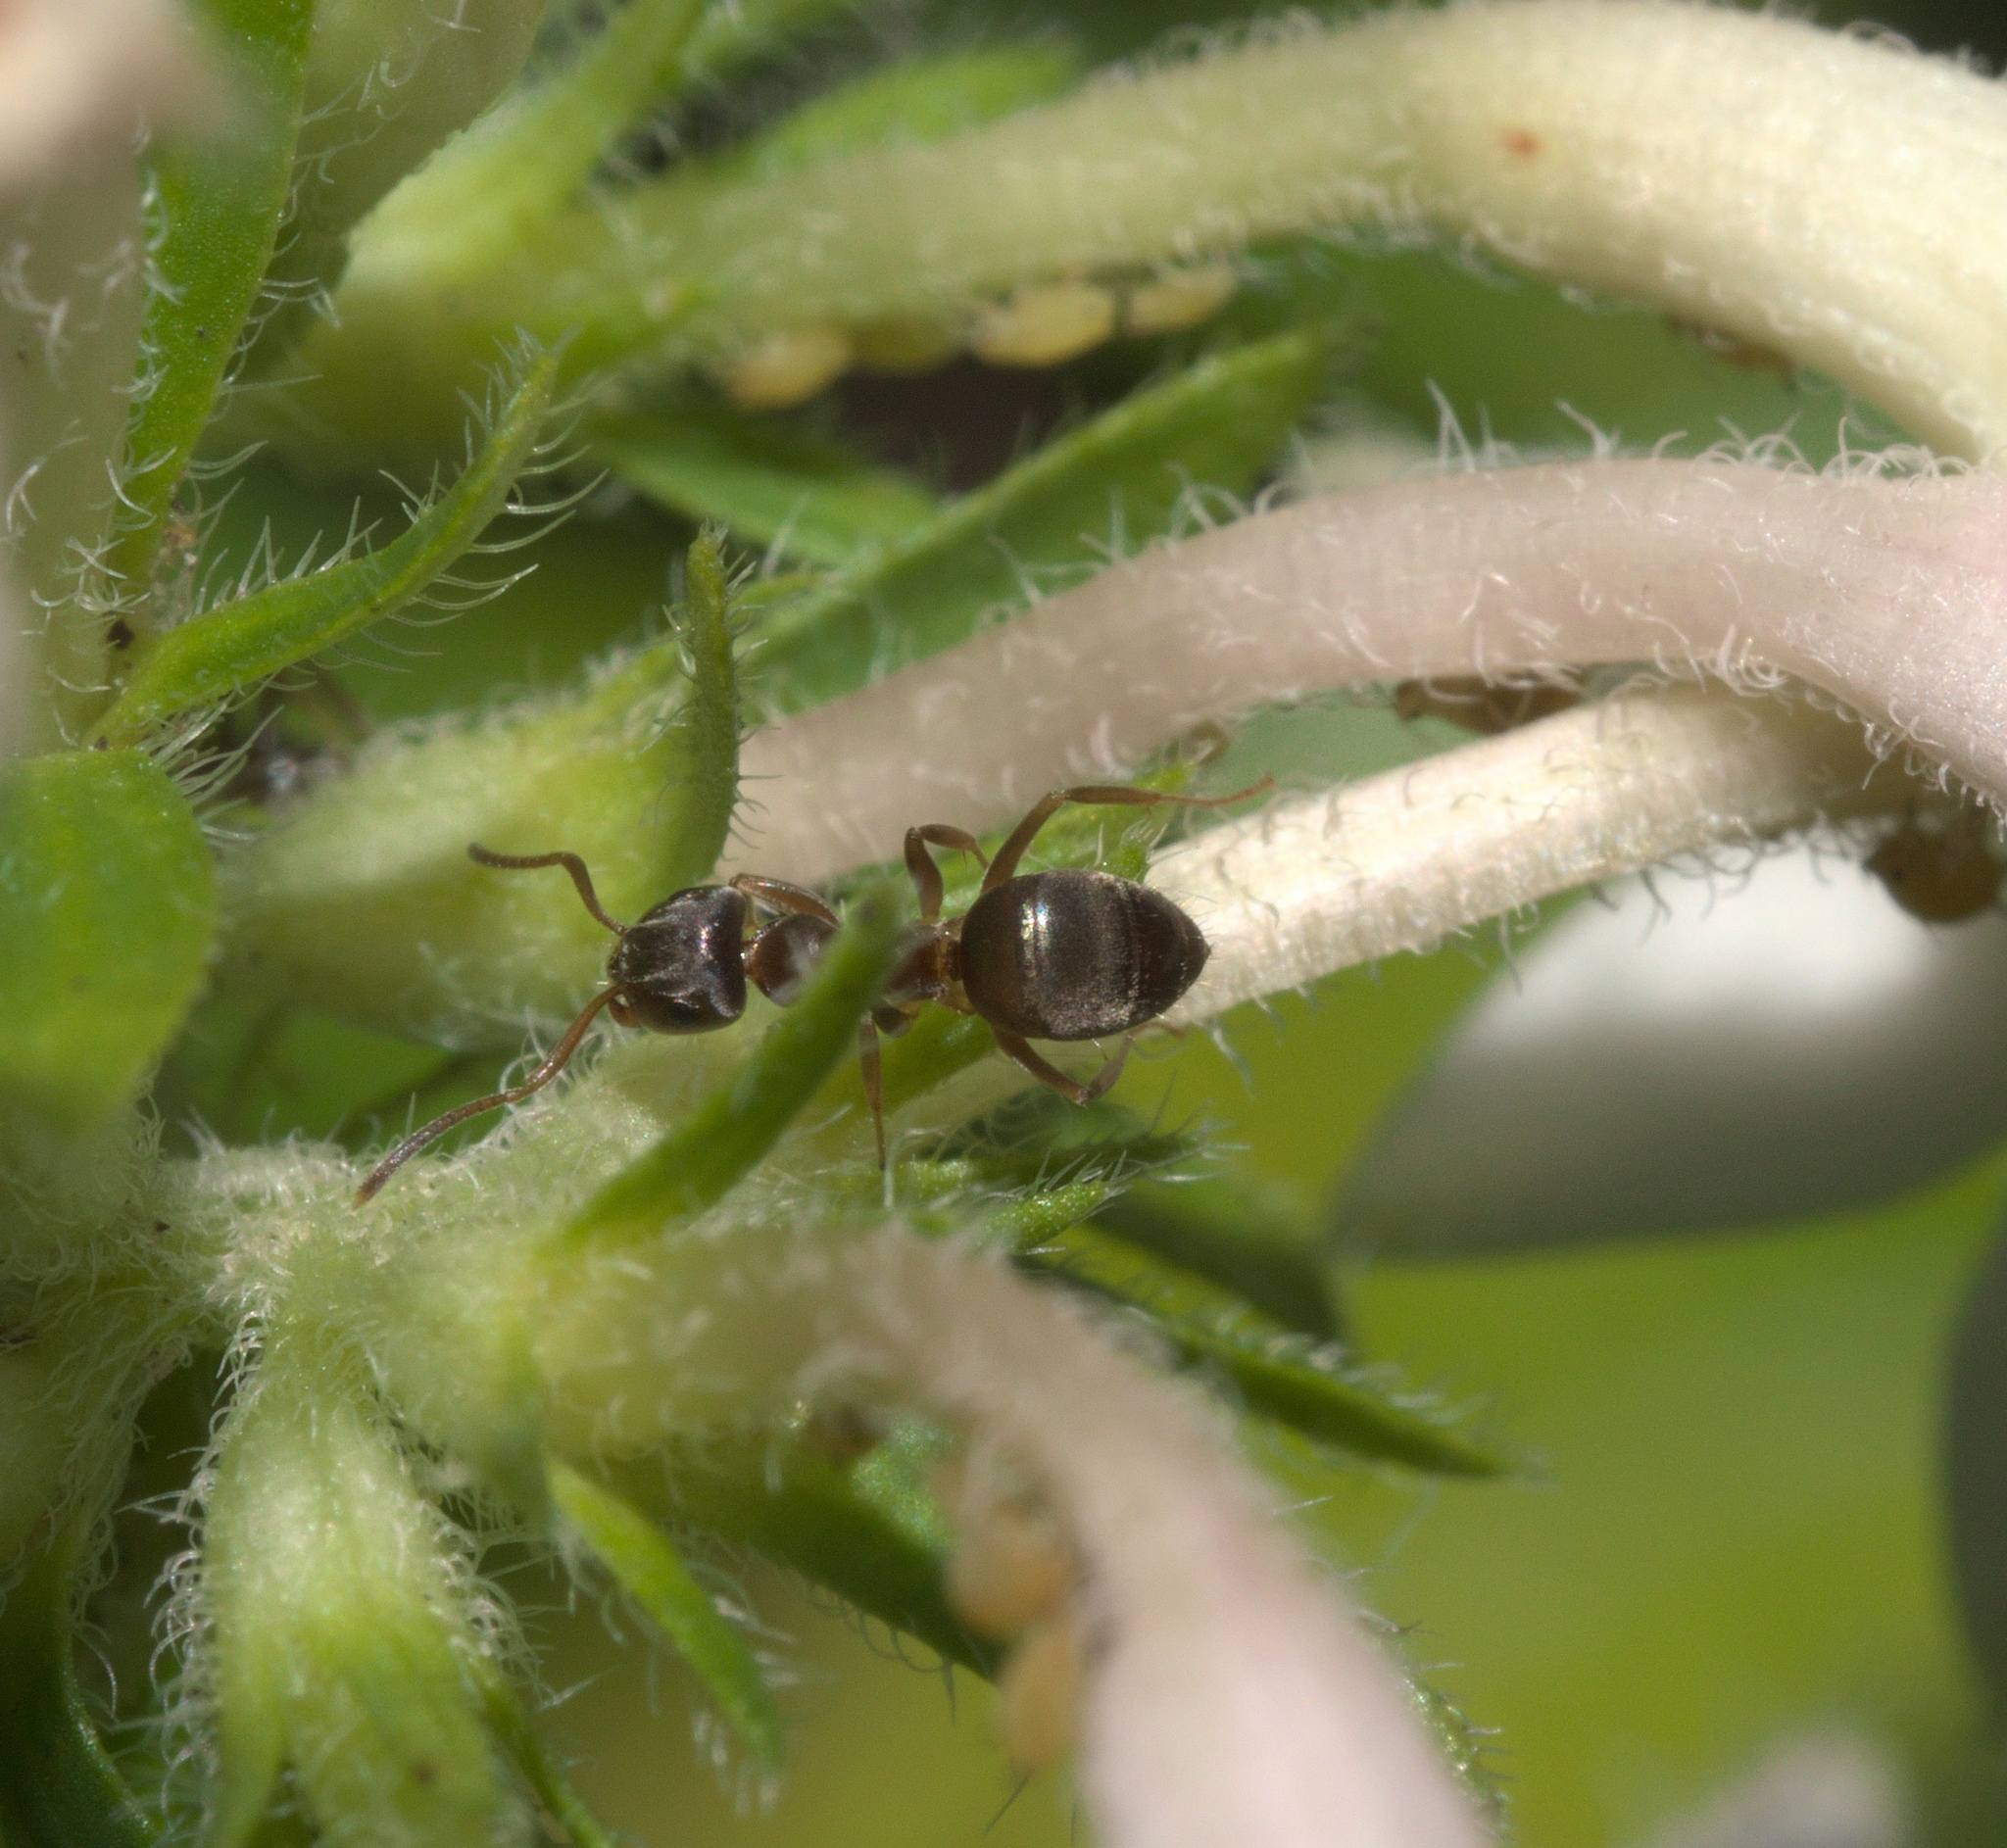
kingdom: Animalia
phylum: Arthropoda
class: Insecta
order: Hymenoptera
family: Formicidae
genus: Lasius
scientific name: Lasius americanus
